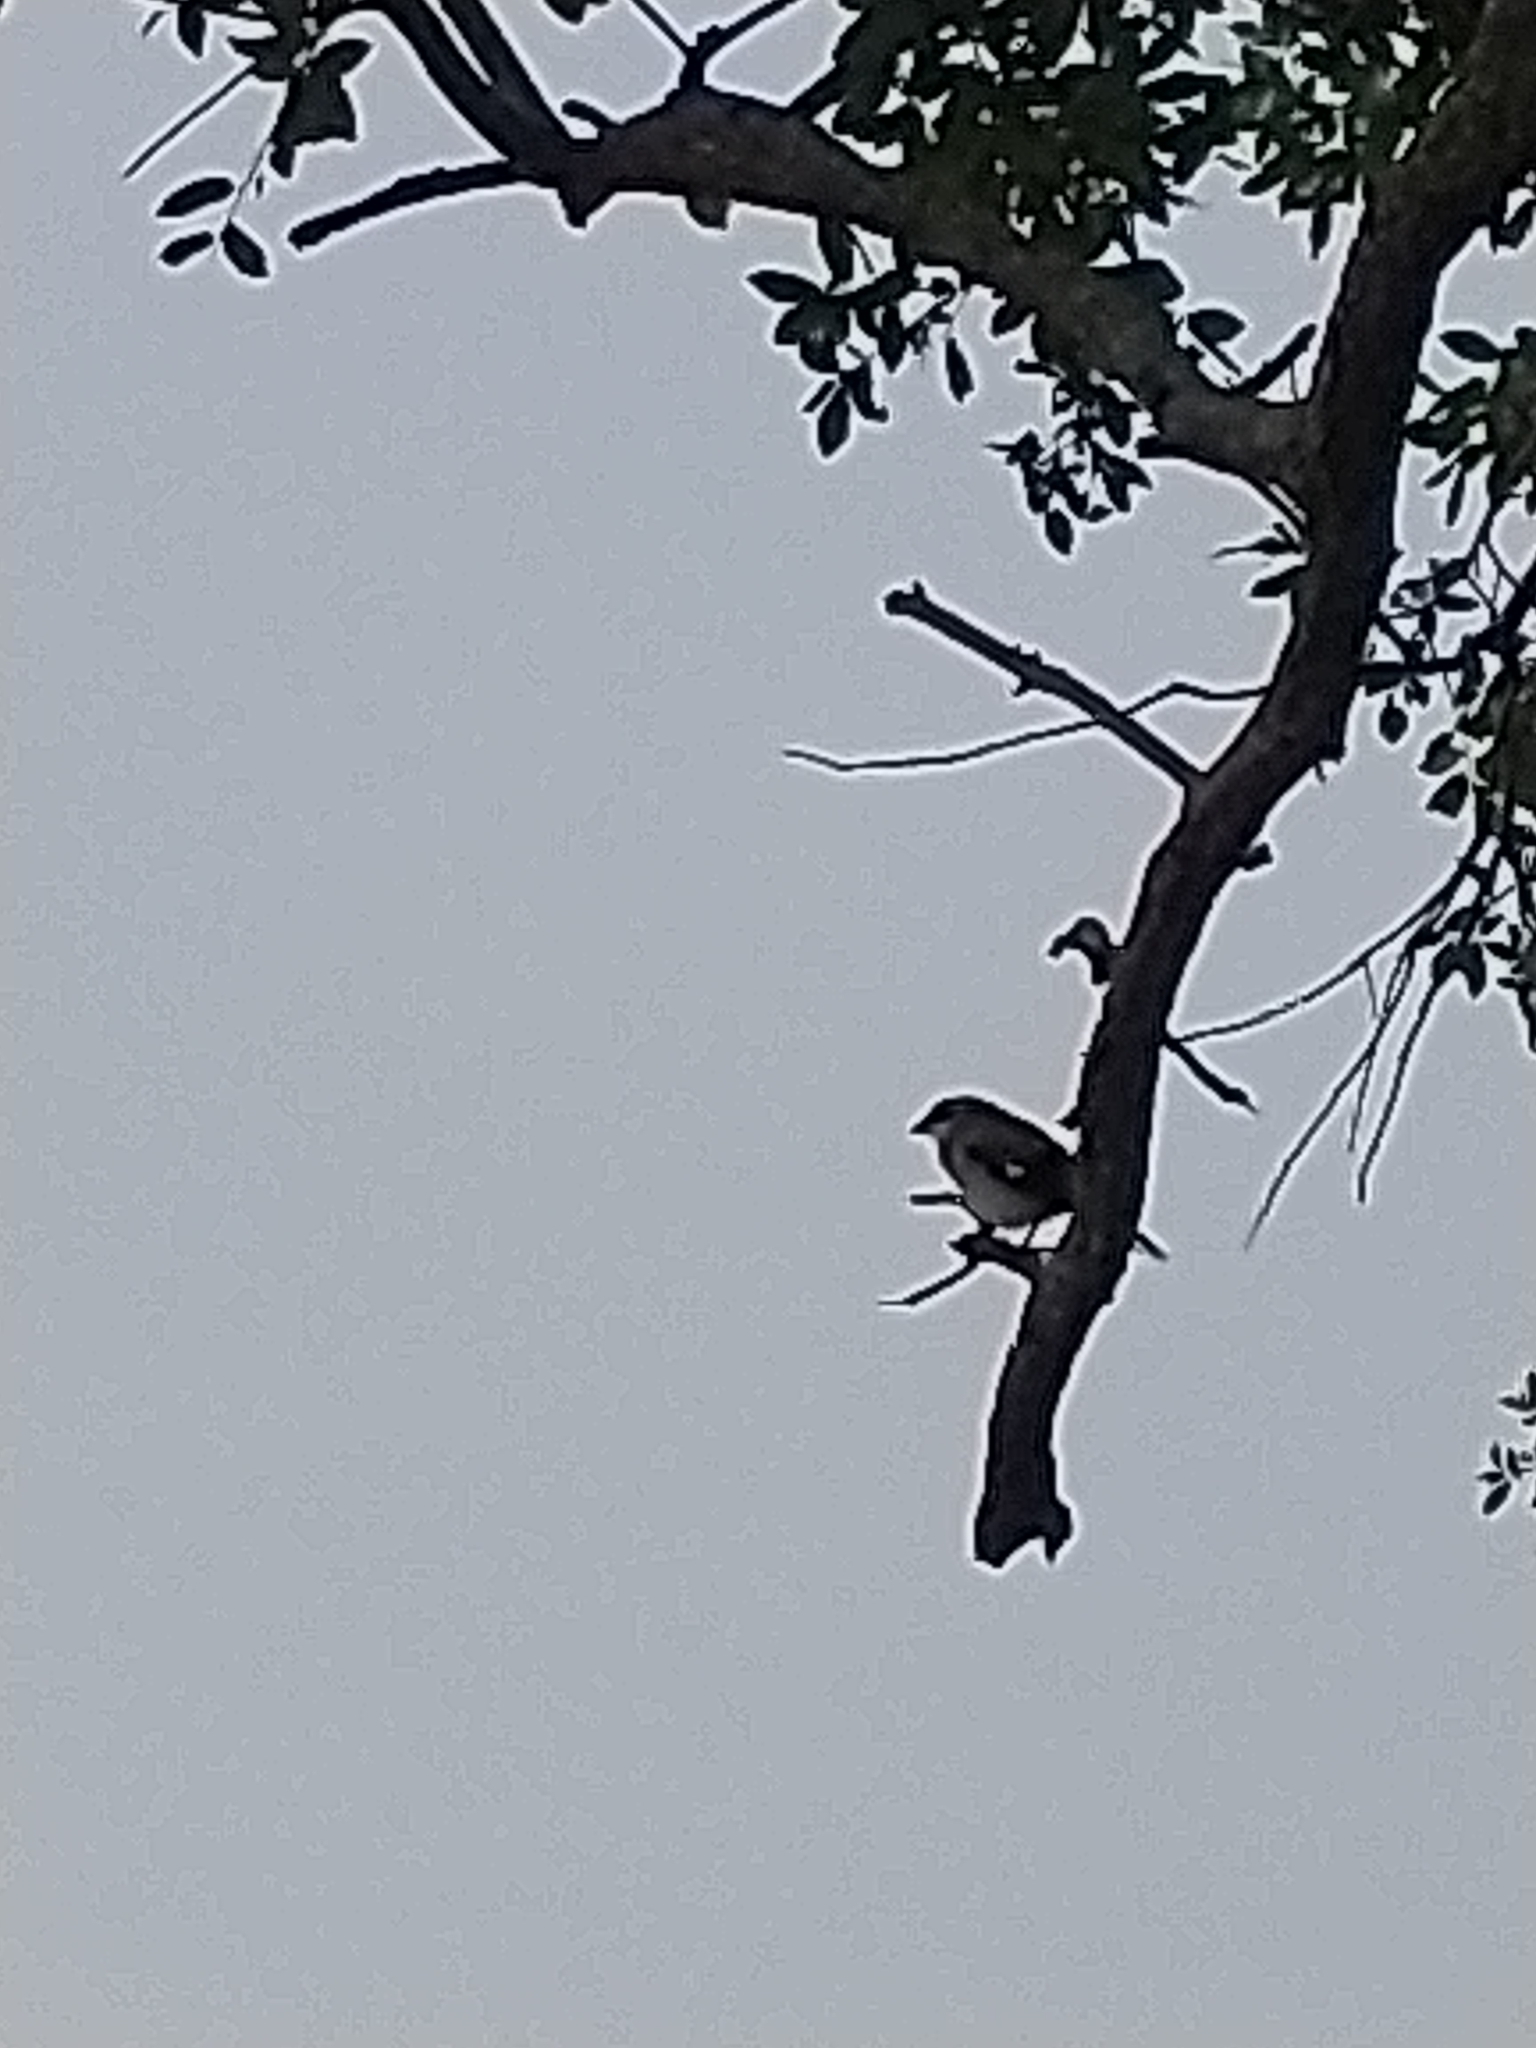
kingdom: Animalia
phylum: Chordata
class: Aves
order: Passeriformes
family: Laniidae
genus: Lanius
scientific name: Lanius ludovicianus
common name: Loggerhead shrike
